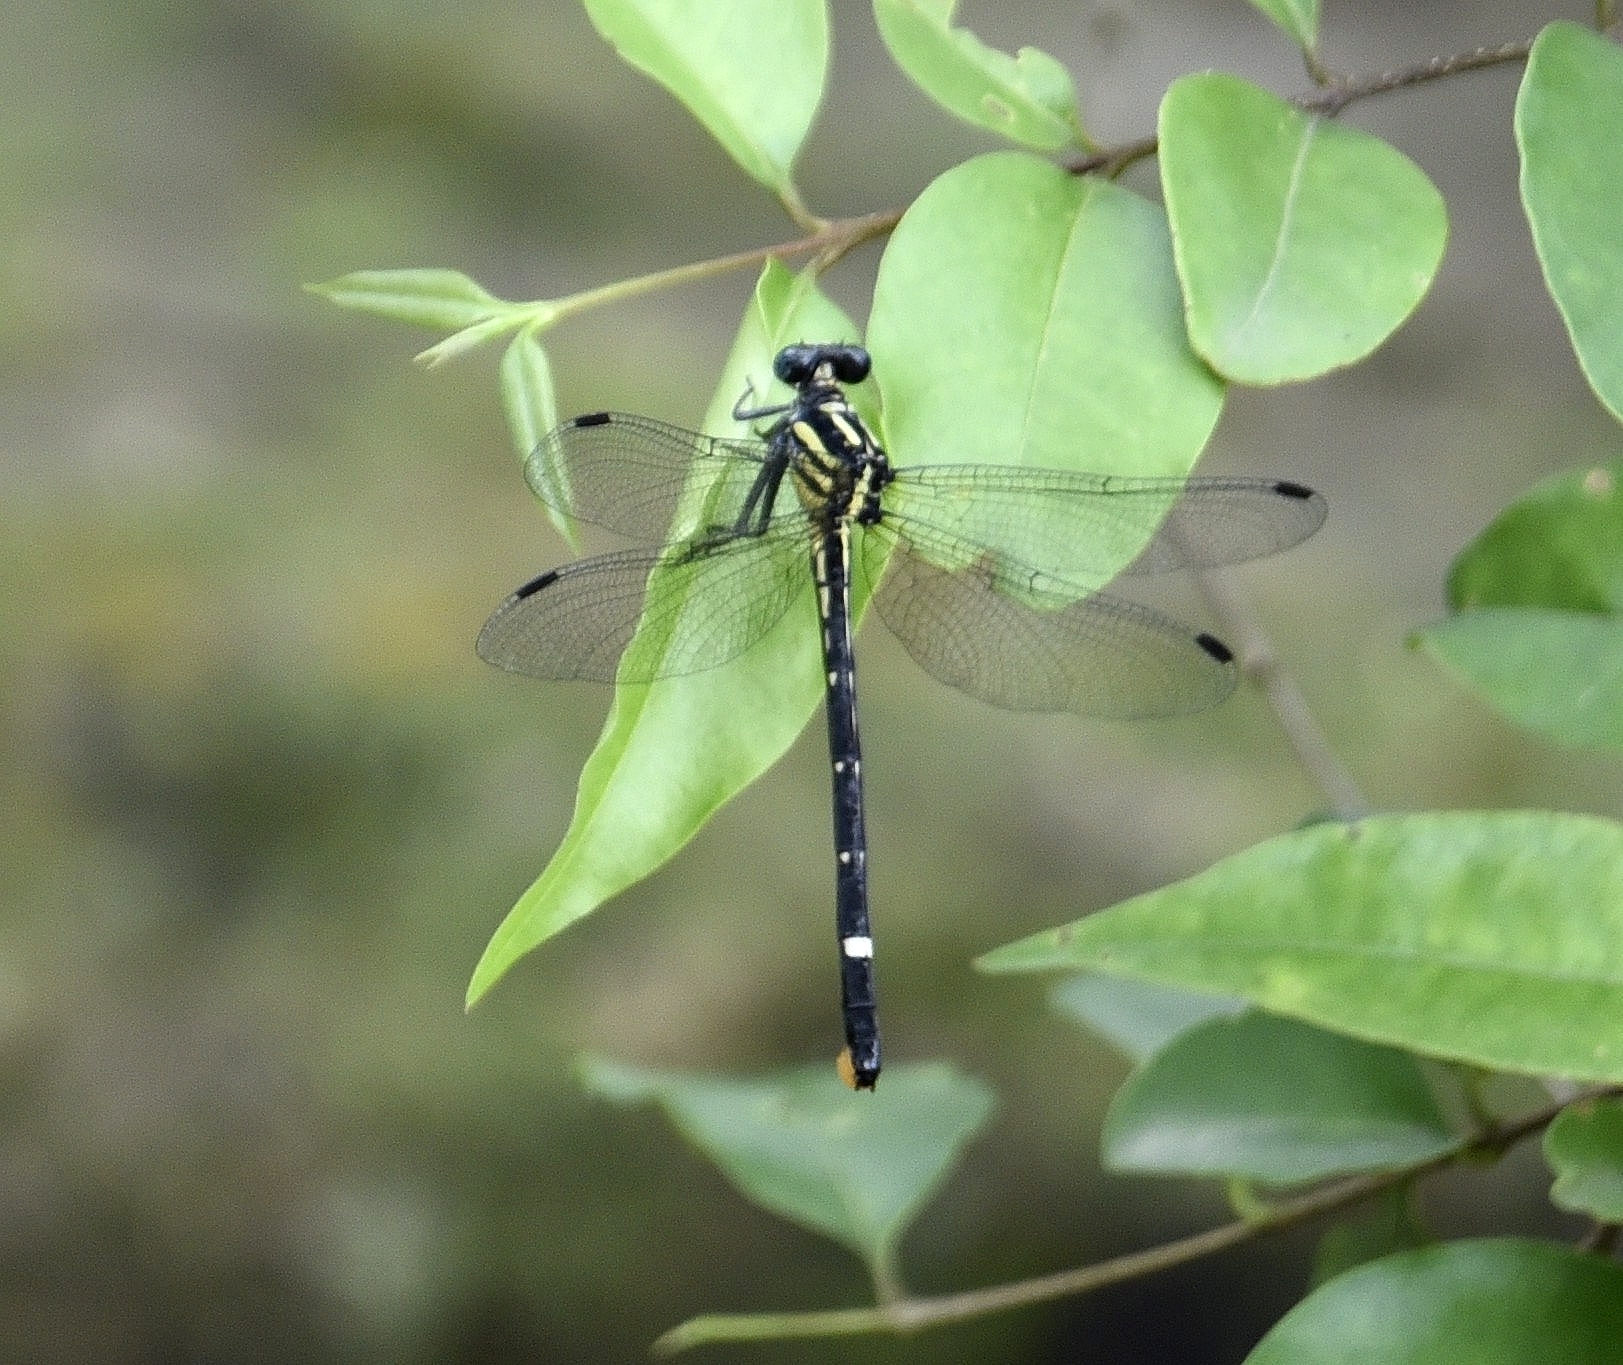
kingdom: Animalia
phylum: Arthropoda
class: Insecta
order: Odonata
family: Gomphidae
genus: Heliogomphus
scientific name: Heliogomphus promelas
